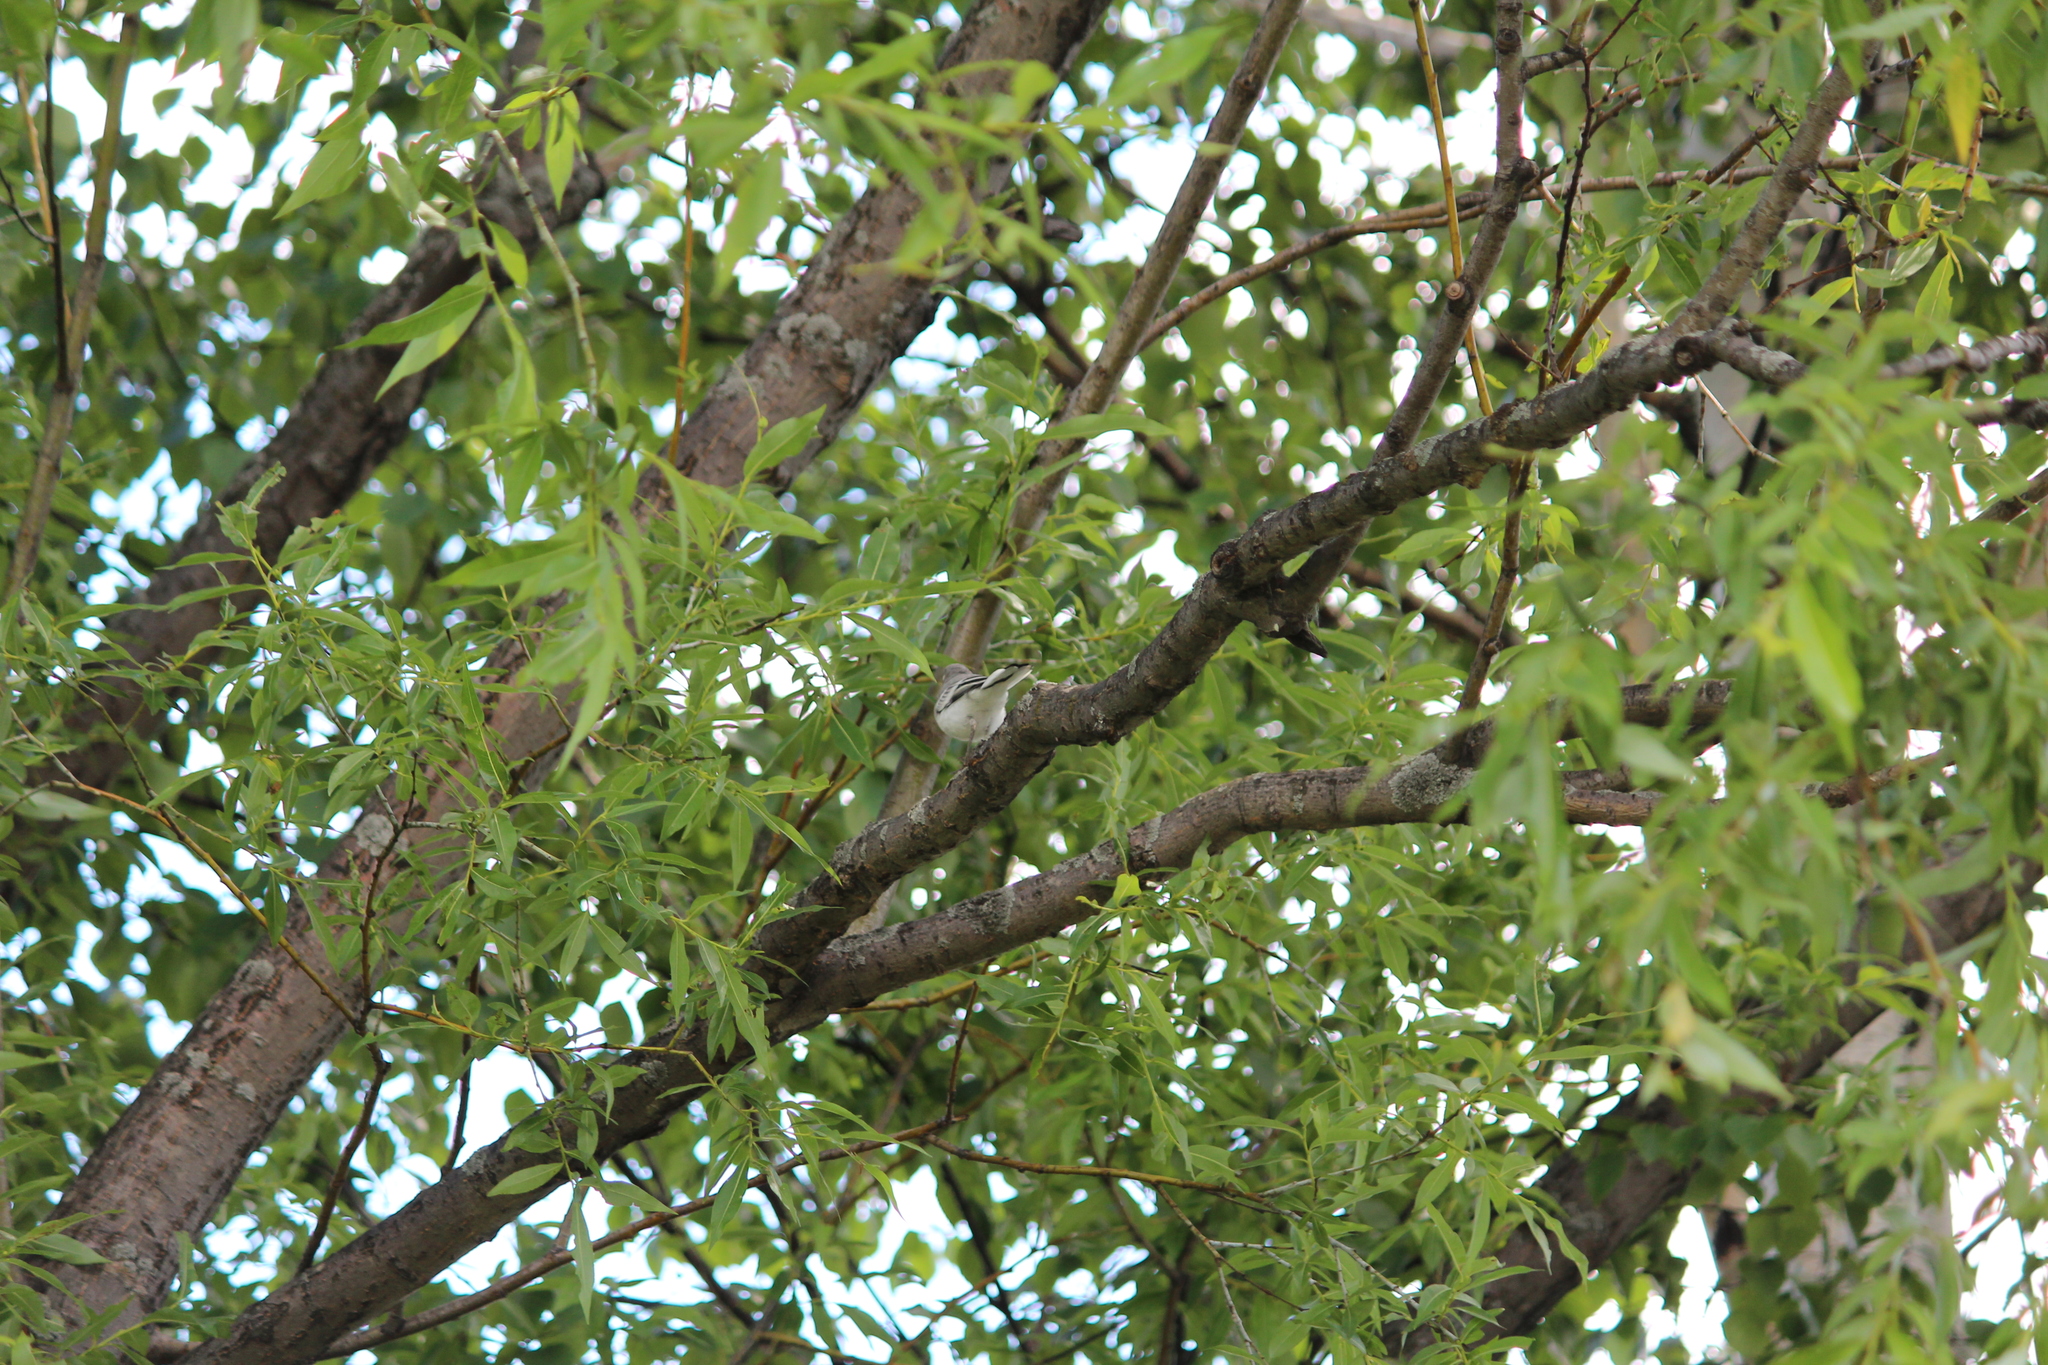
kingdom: Animalia
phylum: Chordata
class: Aves
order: Passeriformes
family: Motacillidae
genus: Motacilla
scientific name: Motacilla alba
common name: White wagtail
